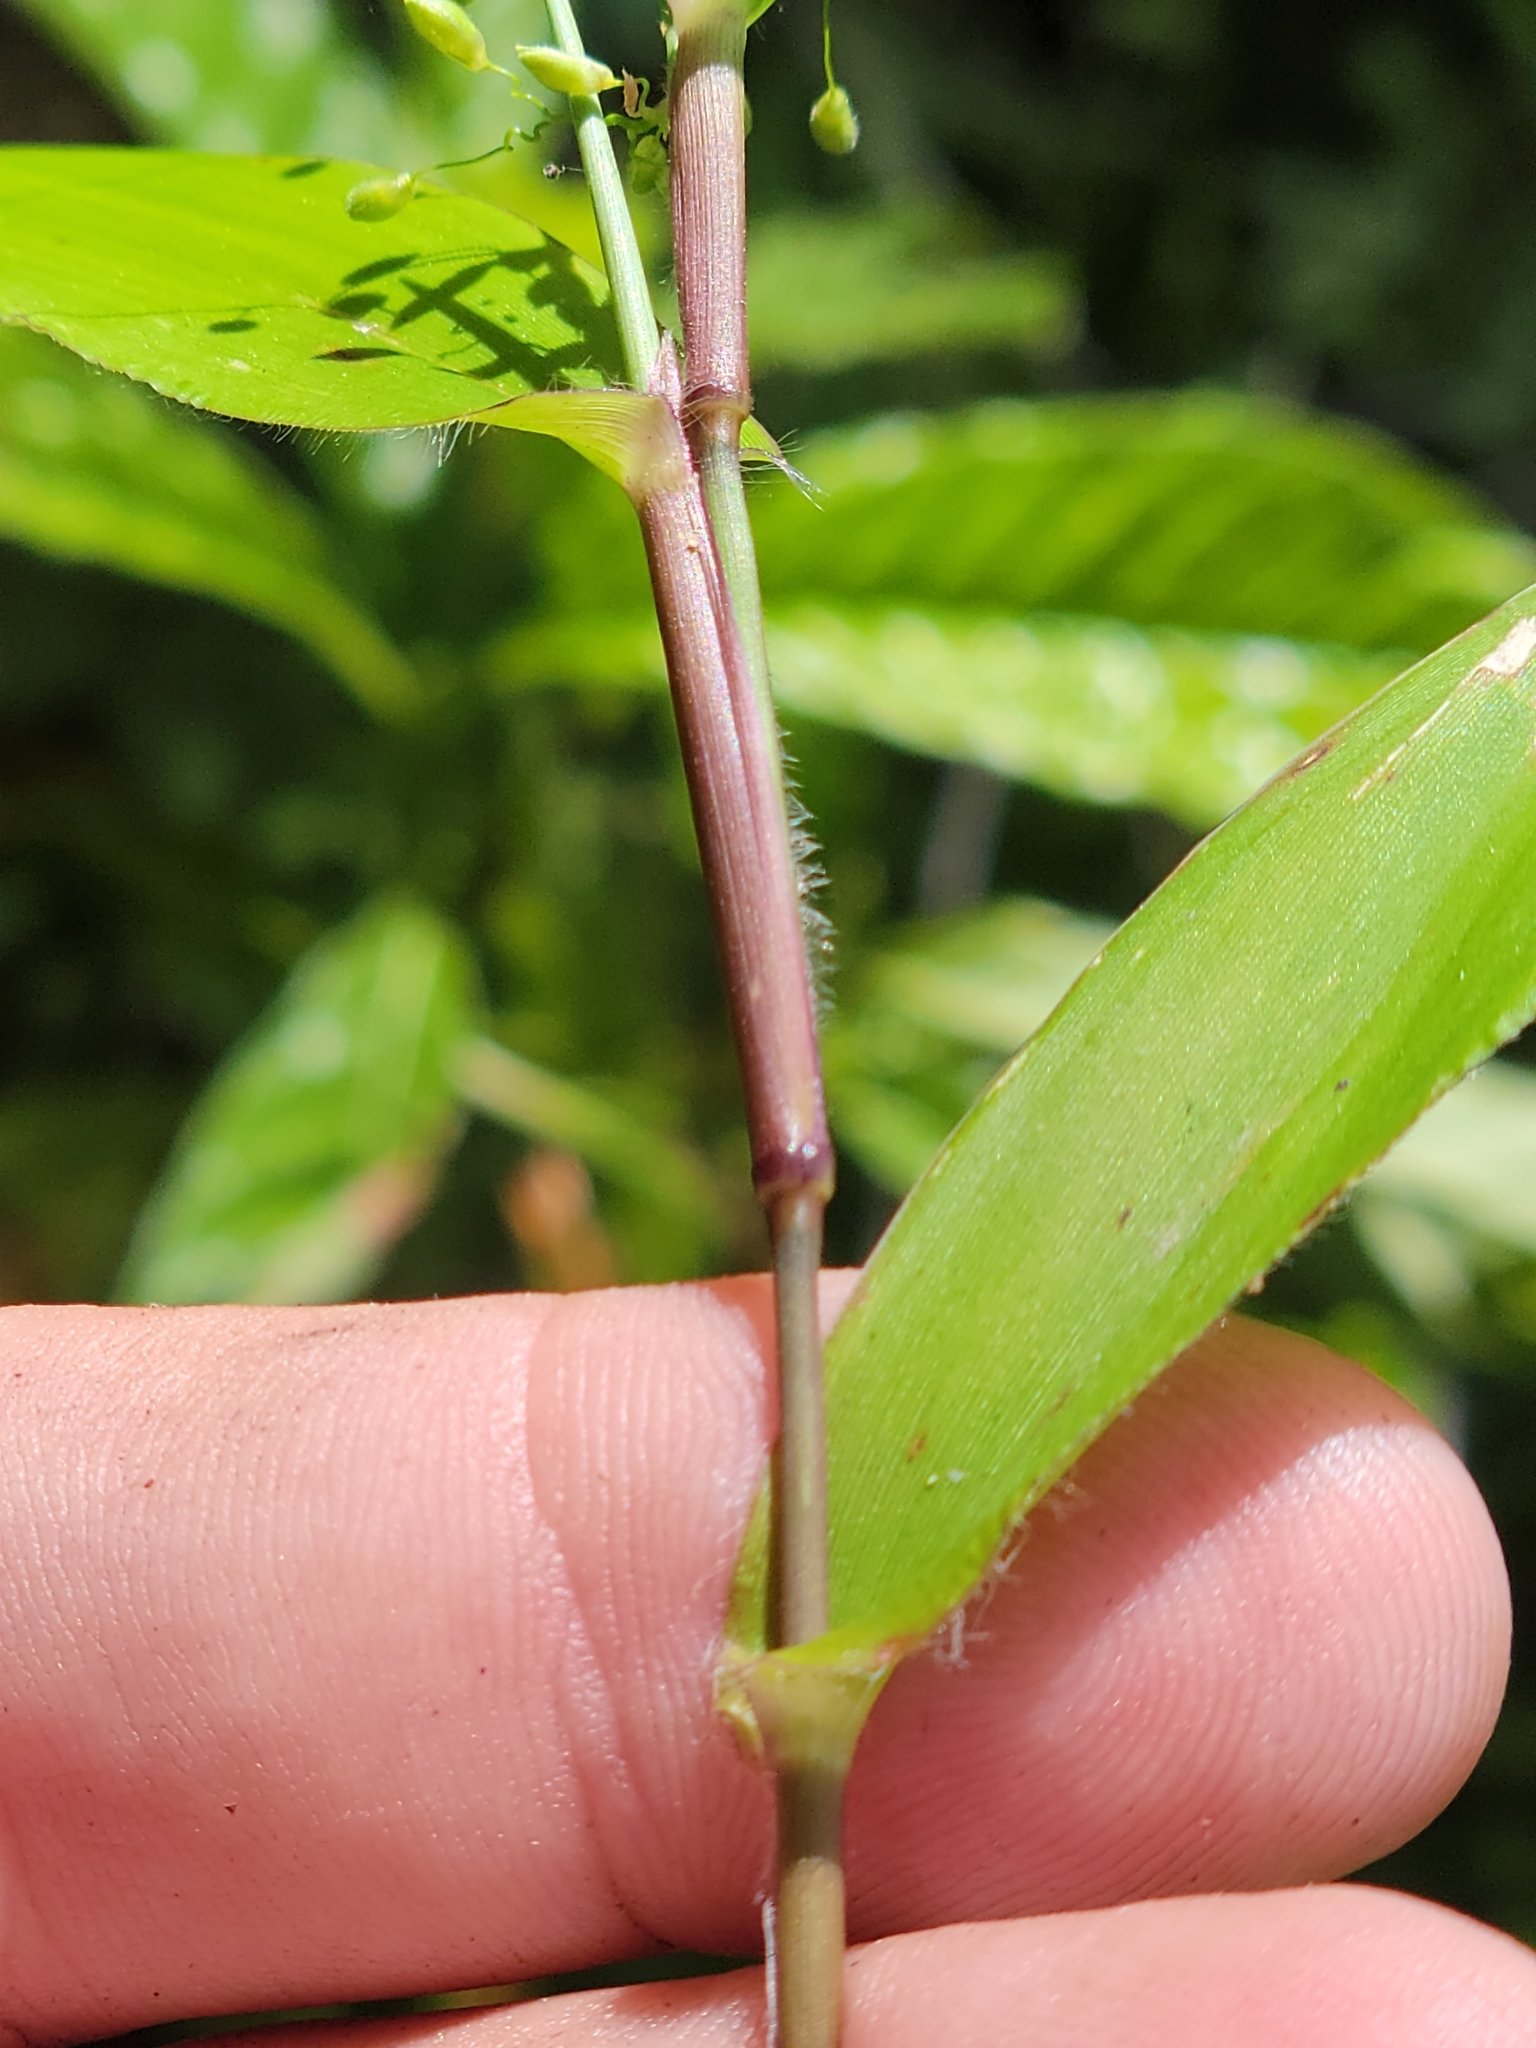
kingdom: Plantae
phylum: Tracheophyta
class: Liliopsida
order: Poales
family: Poaceae
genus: Dichanthelium
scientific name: Dichanthelium commutatum
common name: Variable witchgrass
